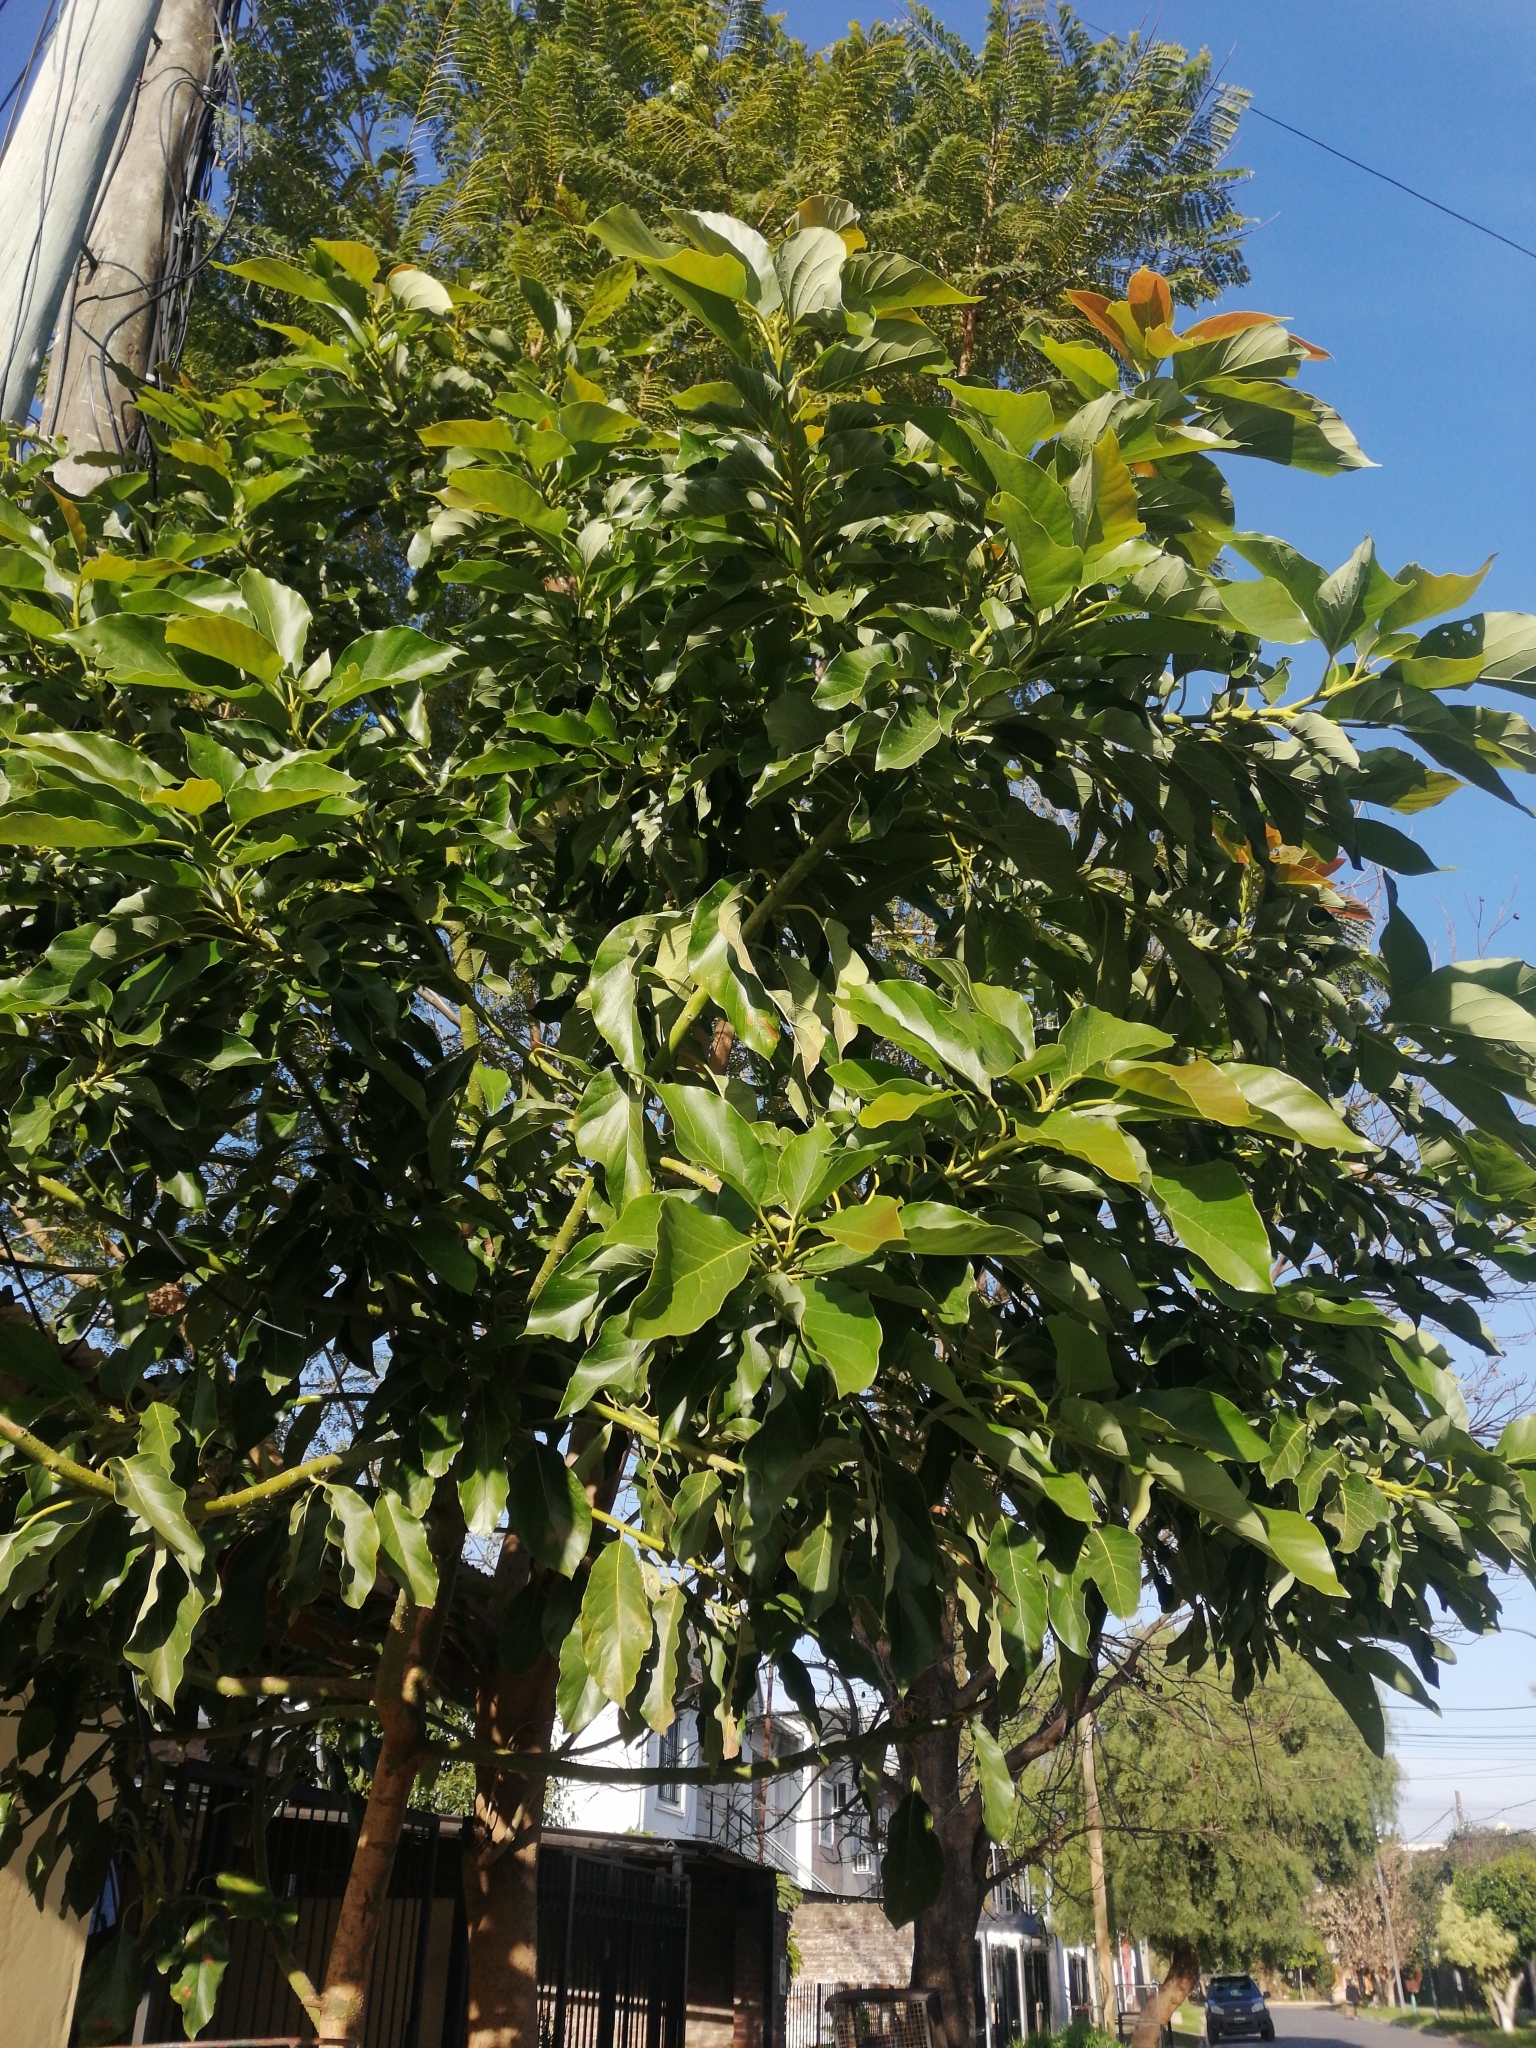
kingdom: Plantae
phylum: Tracheophyta
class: Magnoliopsida
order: Laurales
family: Lauraceae
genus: Persea
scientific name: Persea americana
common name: Avocado
